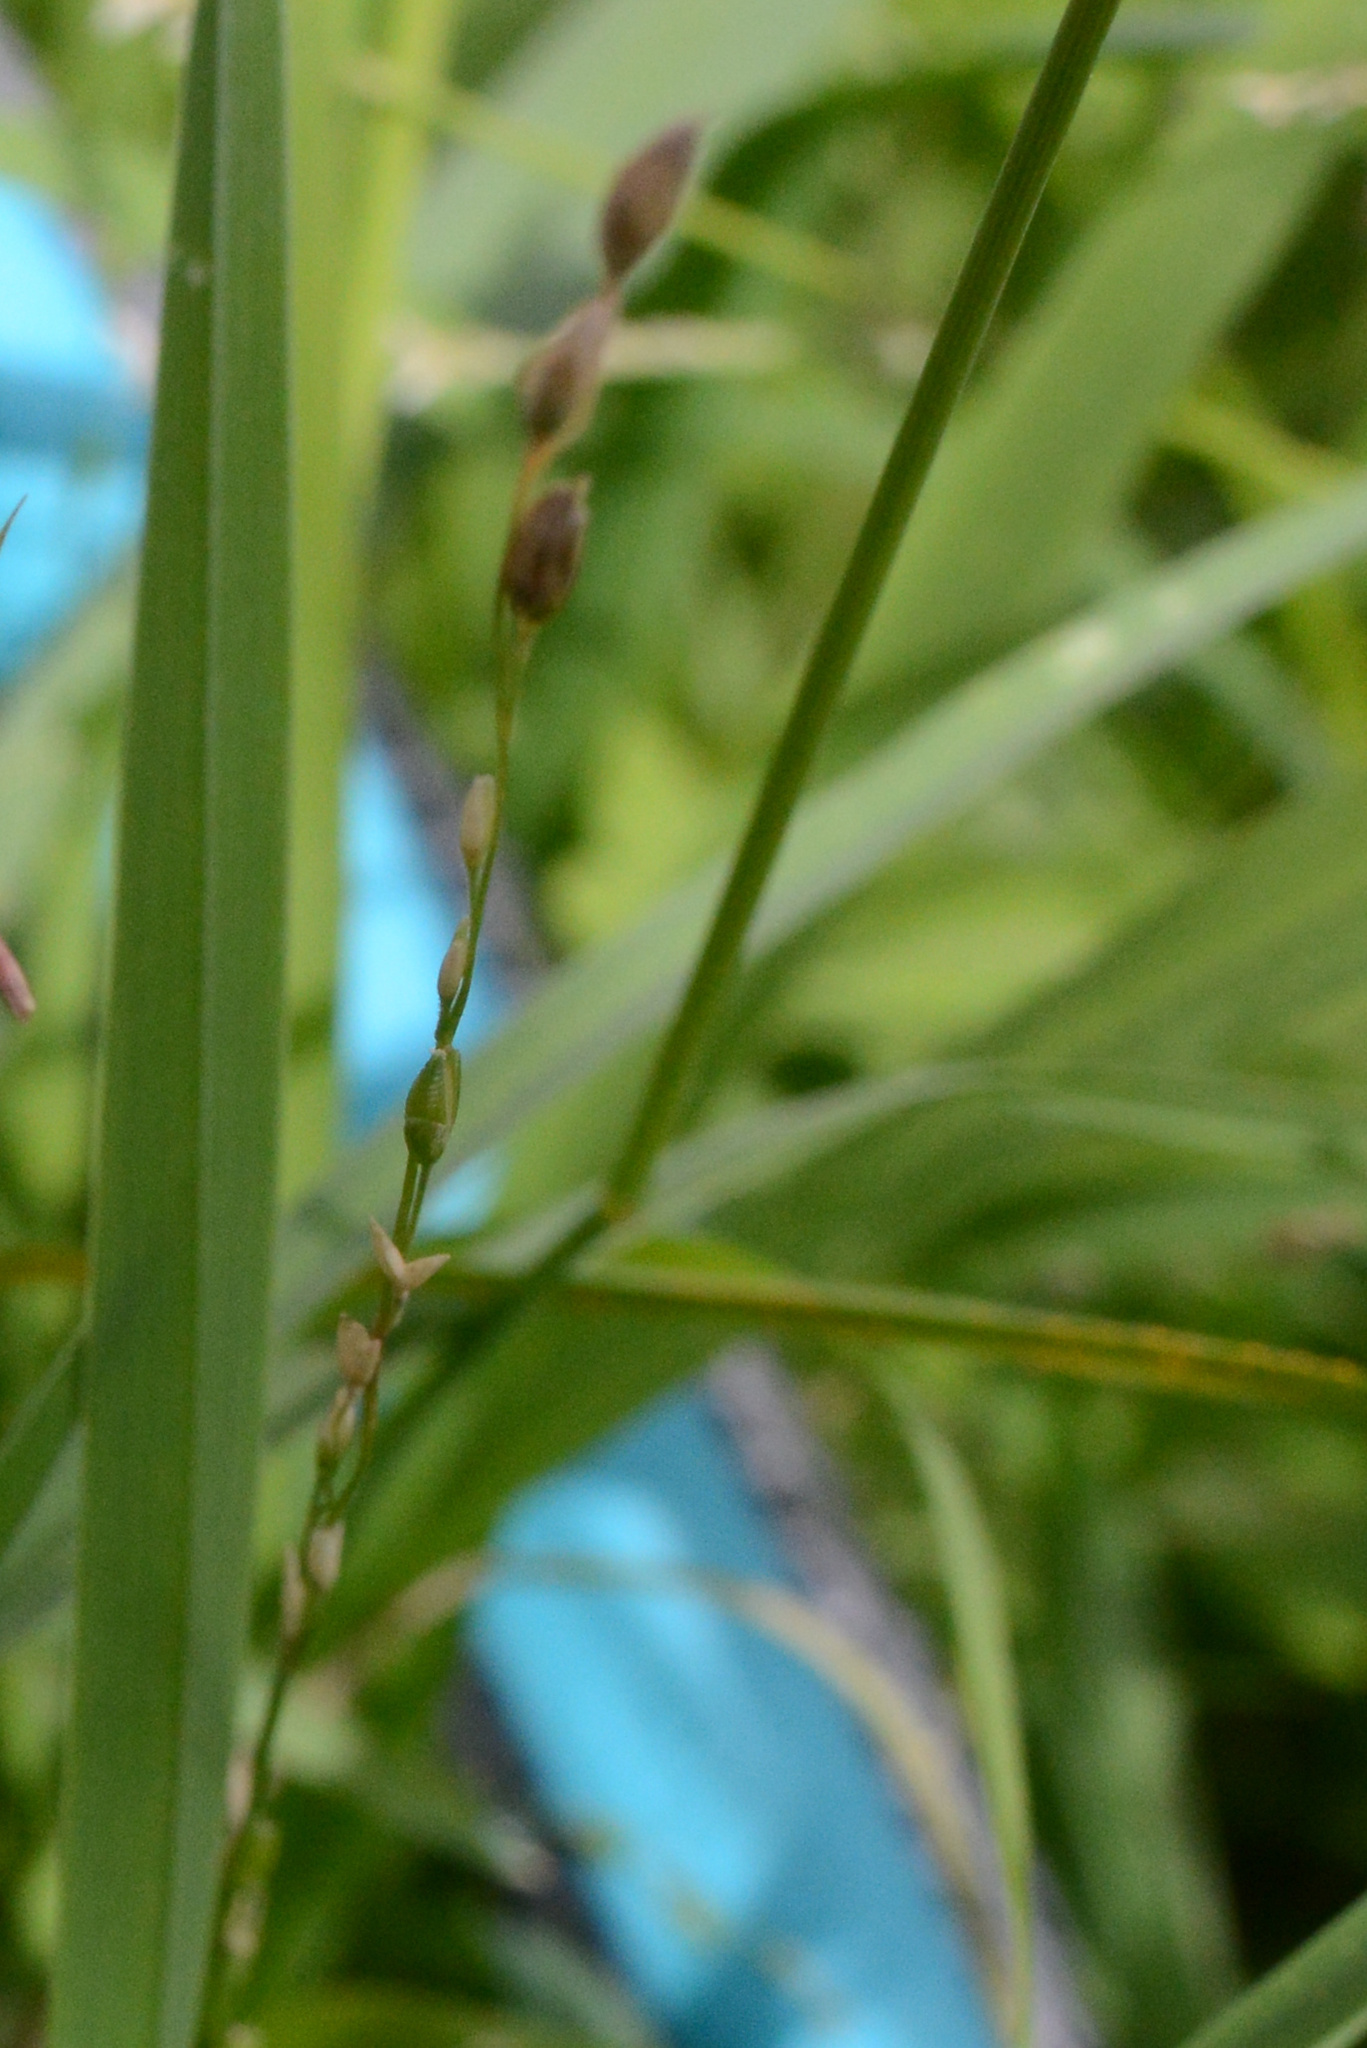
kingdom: Plantae
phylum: Tracheophyta
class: Liliopsida
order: Poales
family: Poaceae
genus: Ehrharta
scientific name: Ehrharta erecta
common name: Panic veldtgrass
